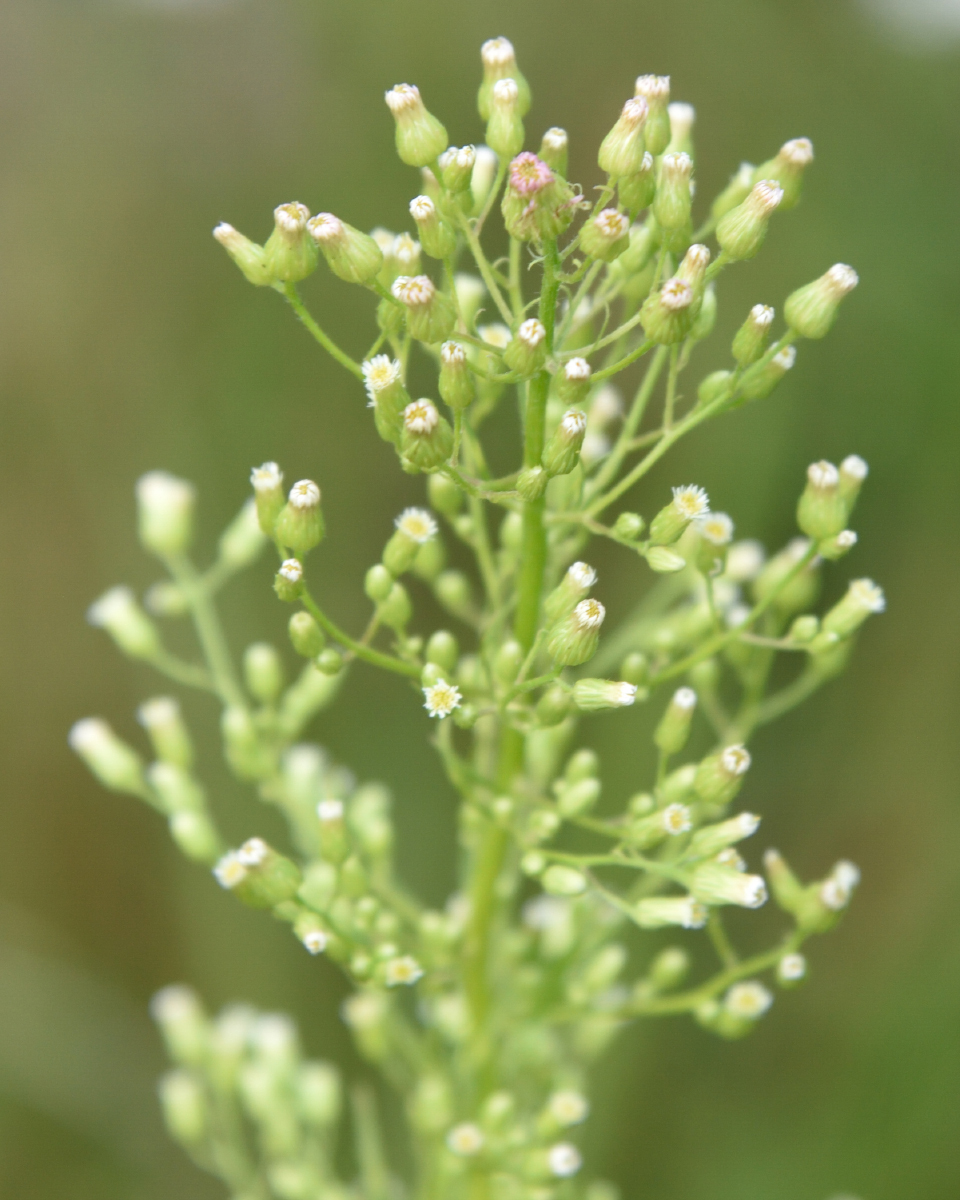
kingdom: Plantae
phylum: Tracheophyta
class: Magnoliopsida
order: Asterales
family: Asteraceae
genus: Erigeron
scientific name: Erigeron canadensis
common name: Canadian fleabane
